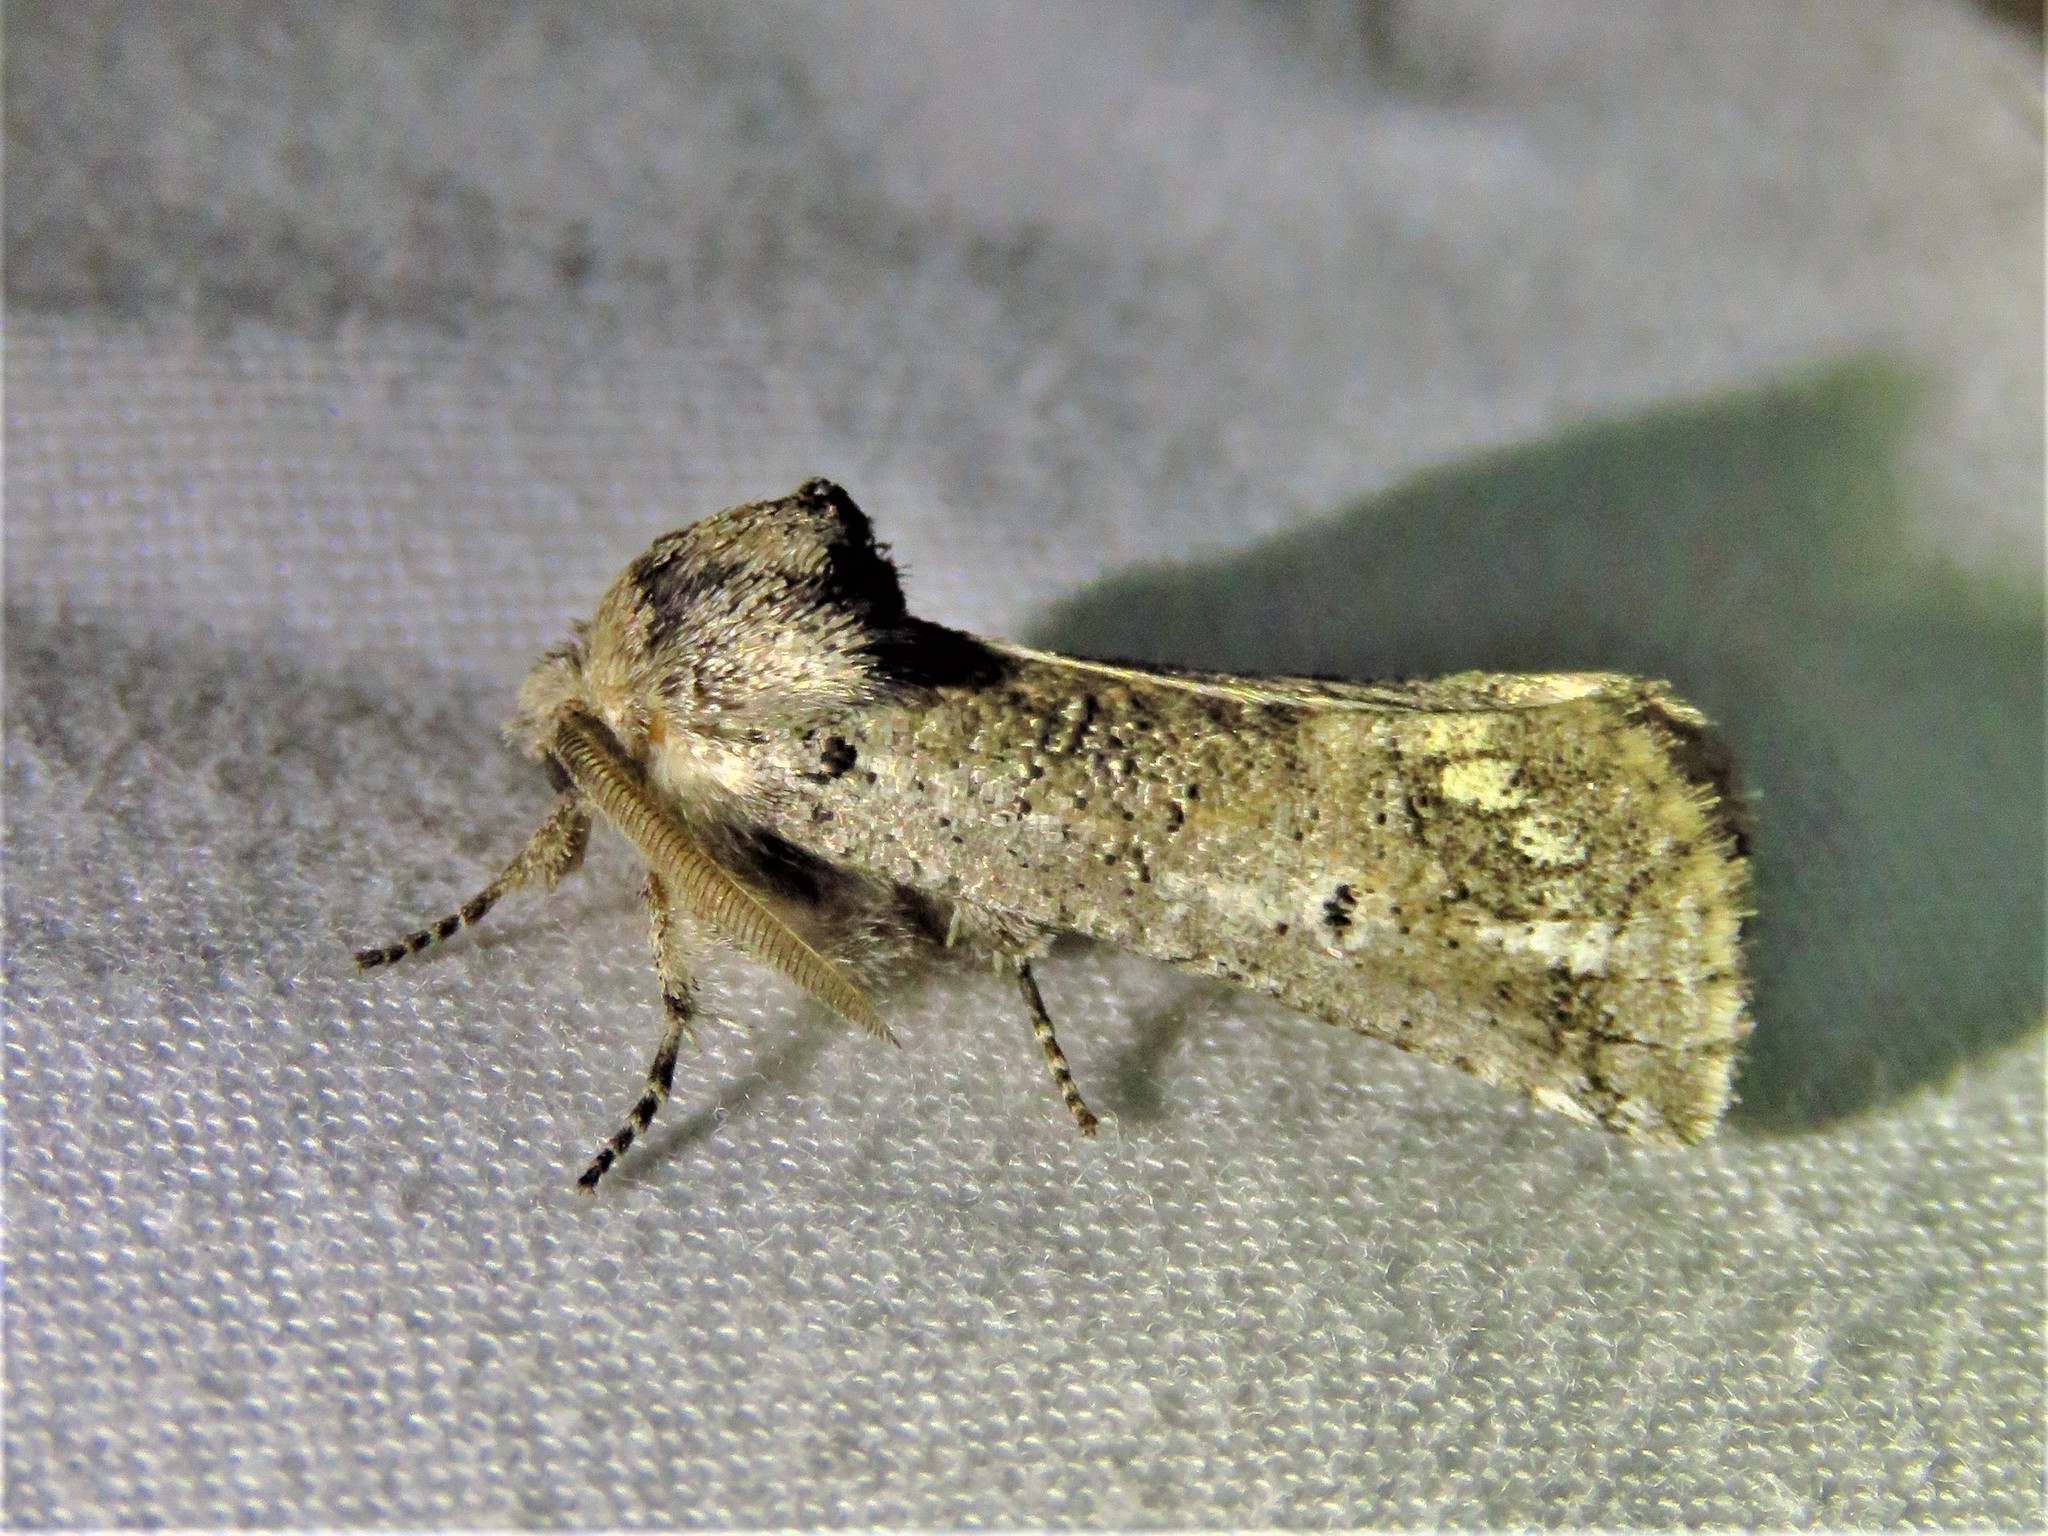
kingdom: Animalia
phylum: Arthropoda
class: Insecta
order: Lepidoptera
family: Erebidae
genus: Aon
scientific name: Aon noctuiformis
